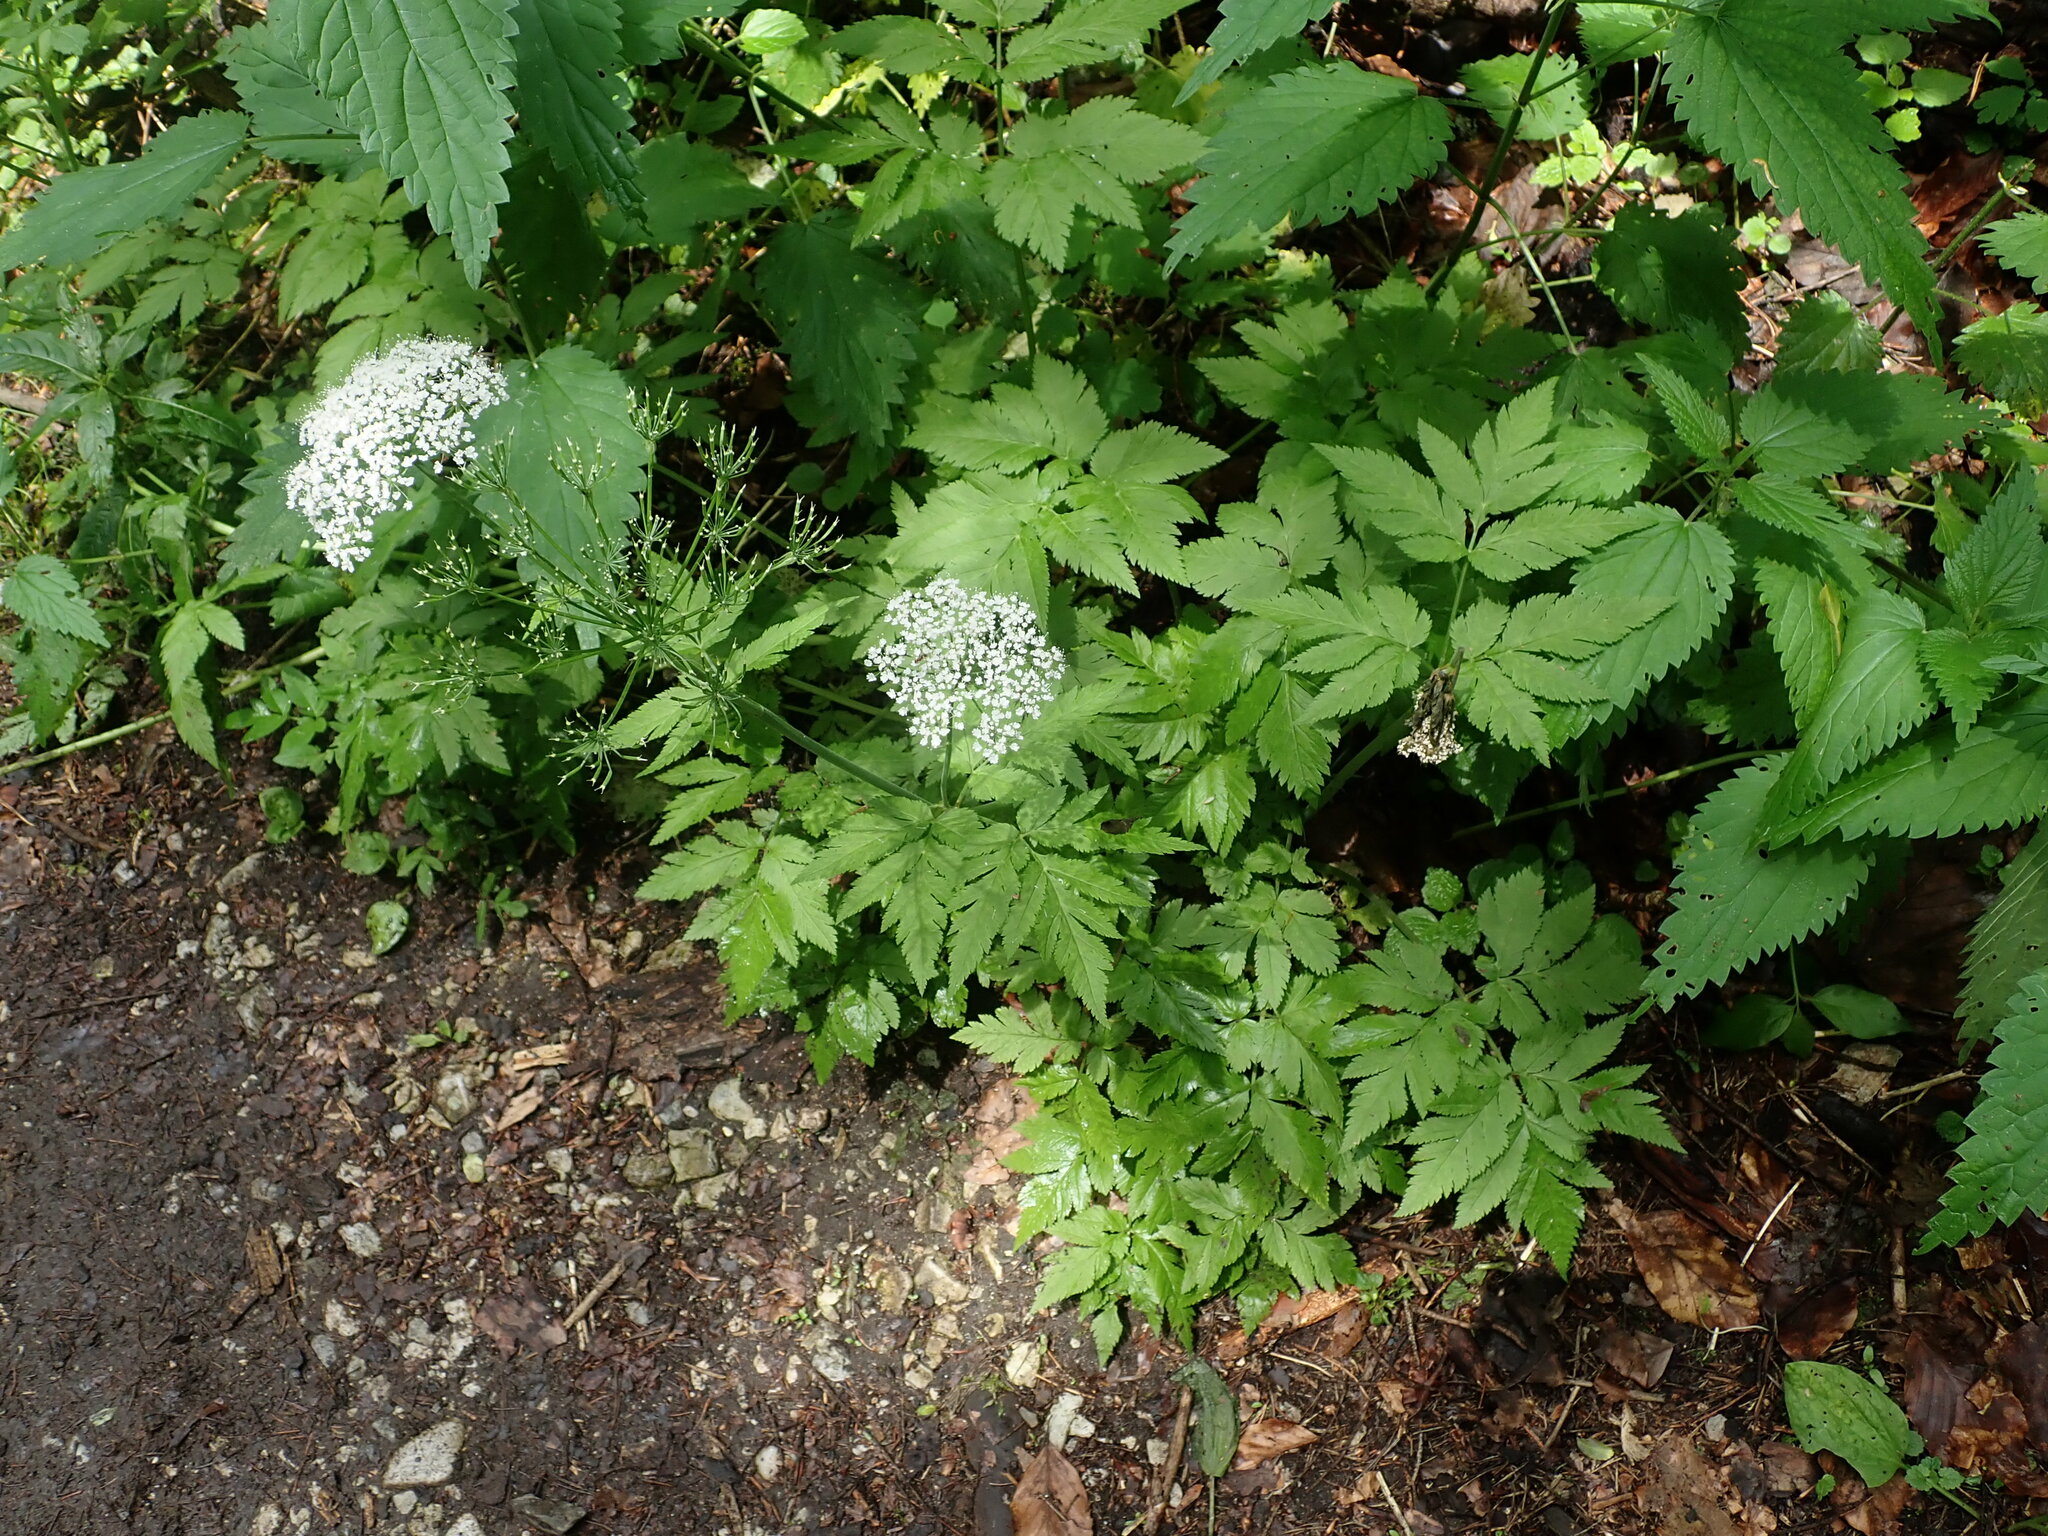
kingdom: Plantae
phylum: Tracheophyta
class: Magnoliopsida
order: Apiales
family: Apiaceae
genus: Chaerophyllum
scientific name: Chaerophyllum hirsutum
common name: Hairy chervil
